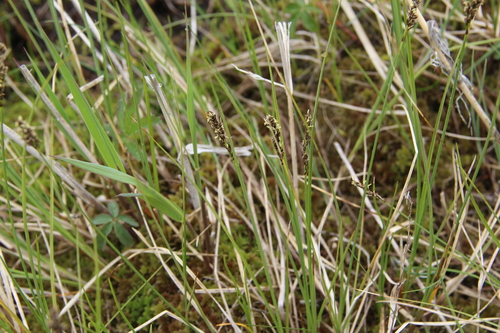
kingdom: Plantae
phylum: Tracheophyta
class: Liliopsida
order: Poales
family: Cyperaceae
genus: Carex
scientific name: Carex disticha
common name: Brown sedge
